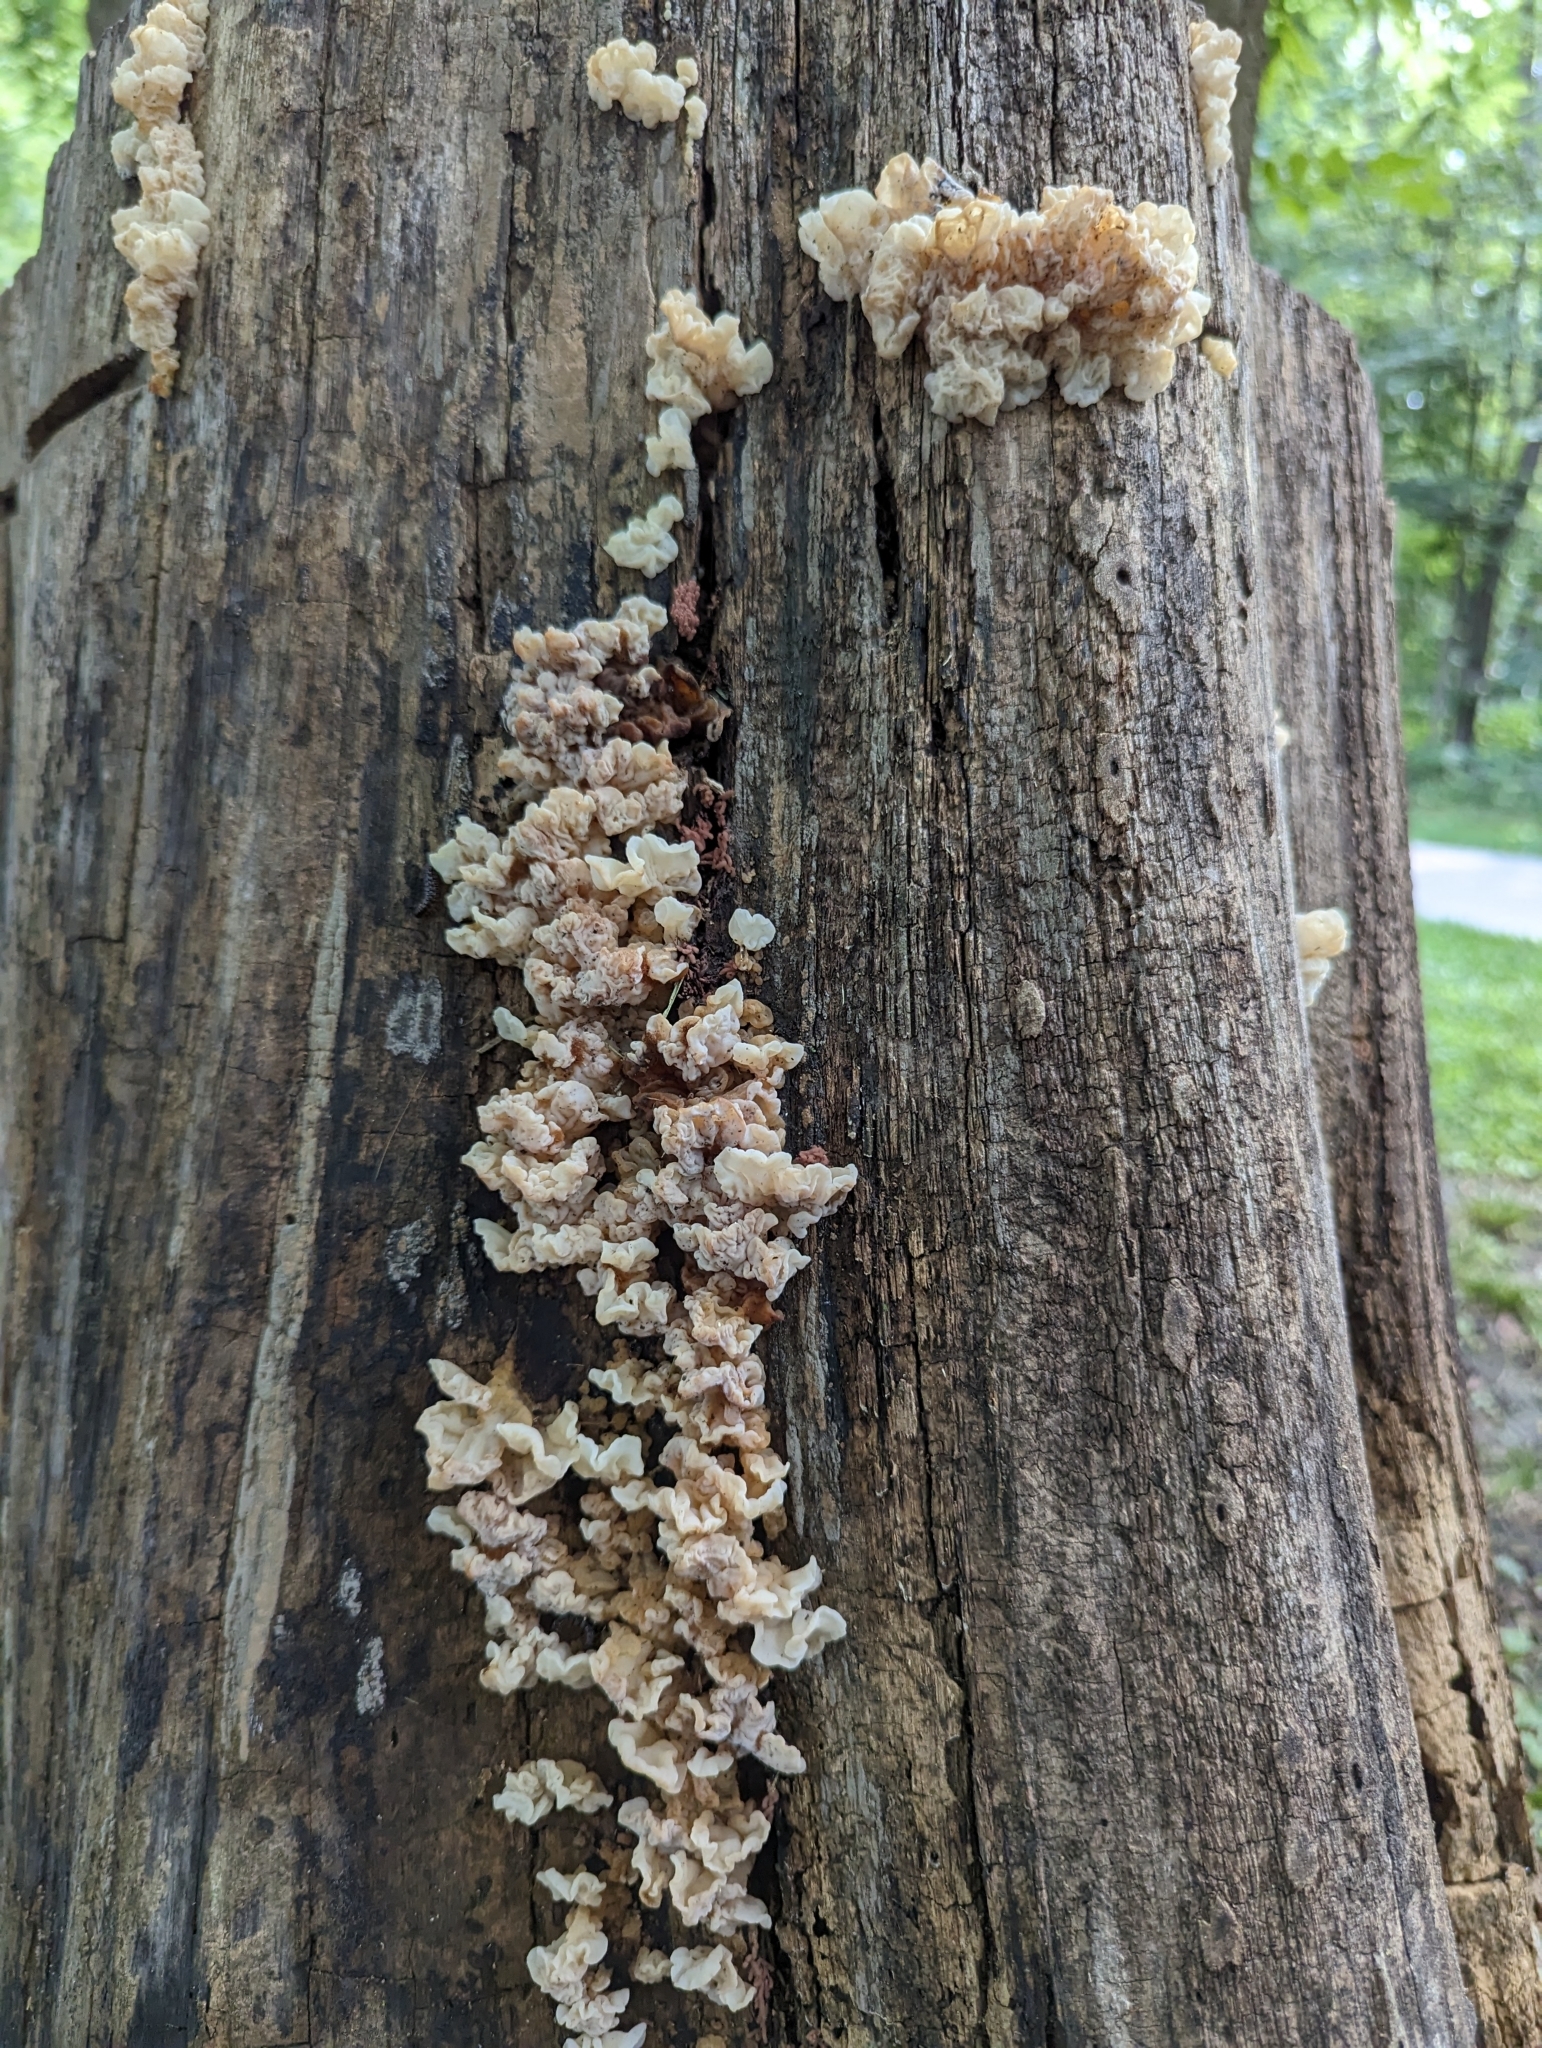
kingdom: Fungi
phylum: Basidiomycota
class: Agaricomycetes
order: Auriculariales
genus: Ductifera
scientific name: Ductifera pululahuana
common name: White jelly fungus
